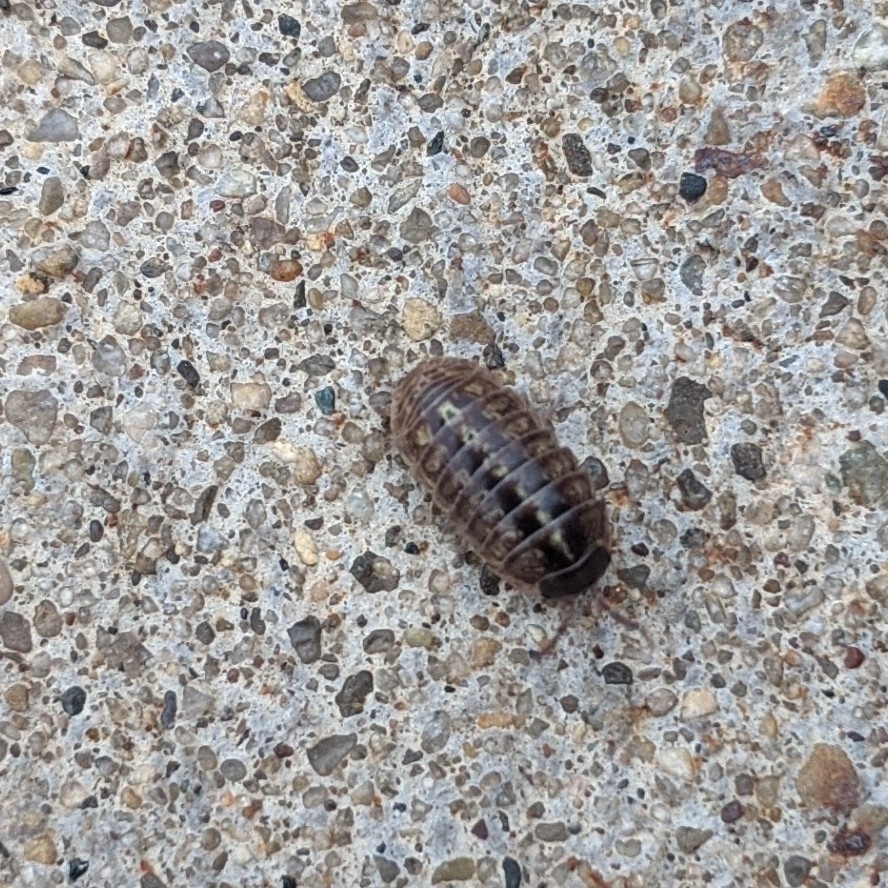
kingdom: Animalia
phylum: Arthropoda
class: Malacostraca
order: Isopoda
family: Armadillidiidae
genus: Armadillidium
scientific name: Armadillidium vulgare
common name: Common pill woodlouse
